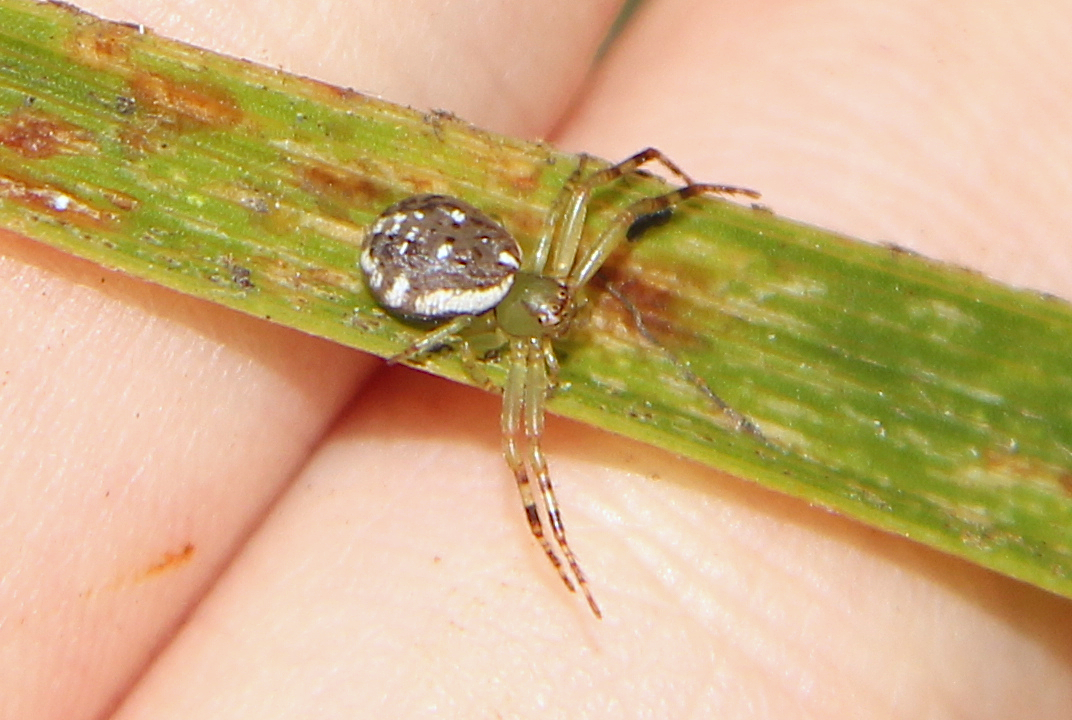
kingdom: Animalia
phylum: Arthropoda
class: Arachnida
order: Araneae
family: Thomisidae
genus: Diaea
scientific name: Diaea ambara
